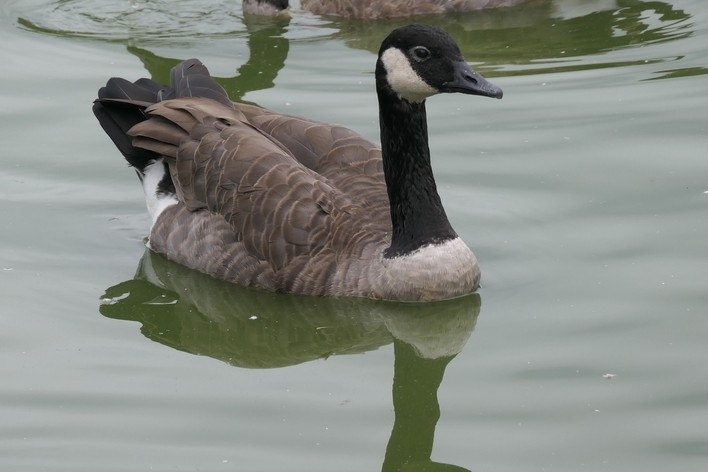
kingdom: Animalia
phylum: Chordata
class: Aves
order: Anseriformes
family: Anatidae
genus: Branta
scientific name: Branta canadensis
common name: Canada goose
